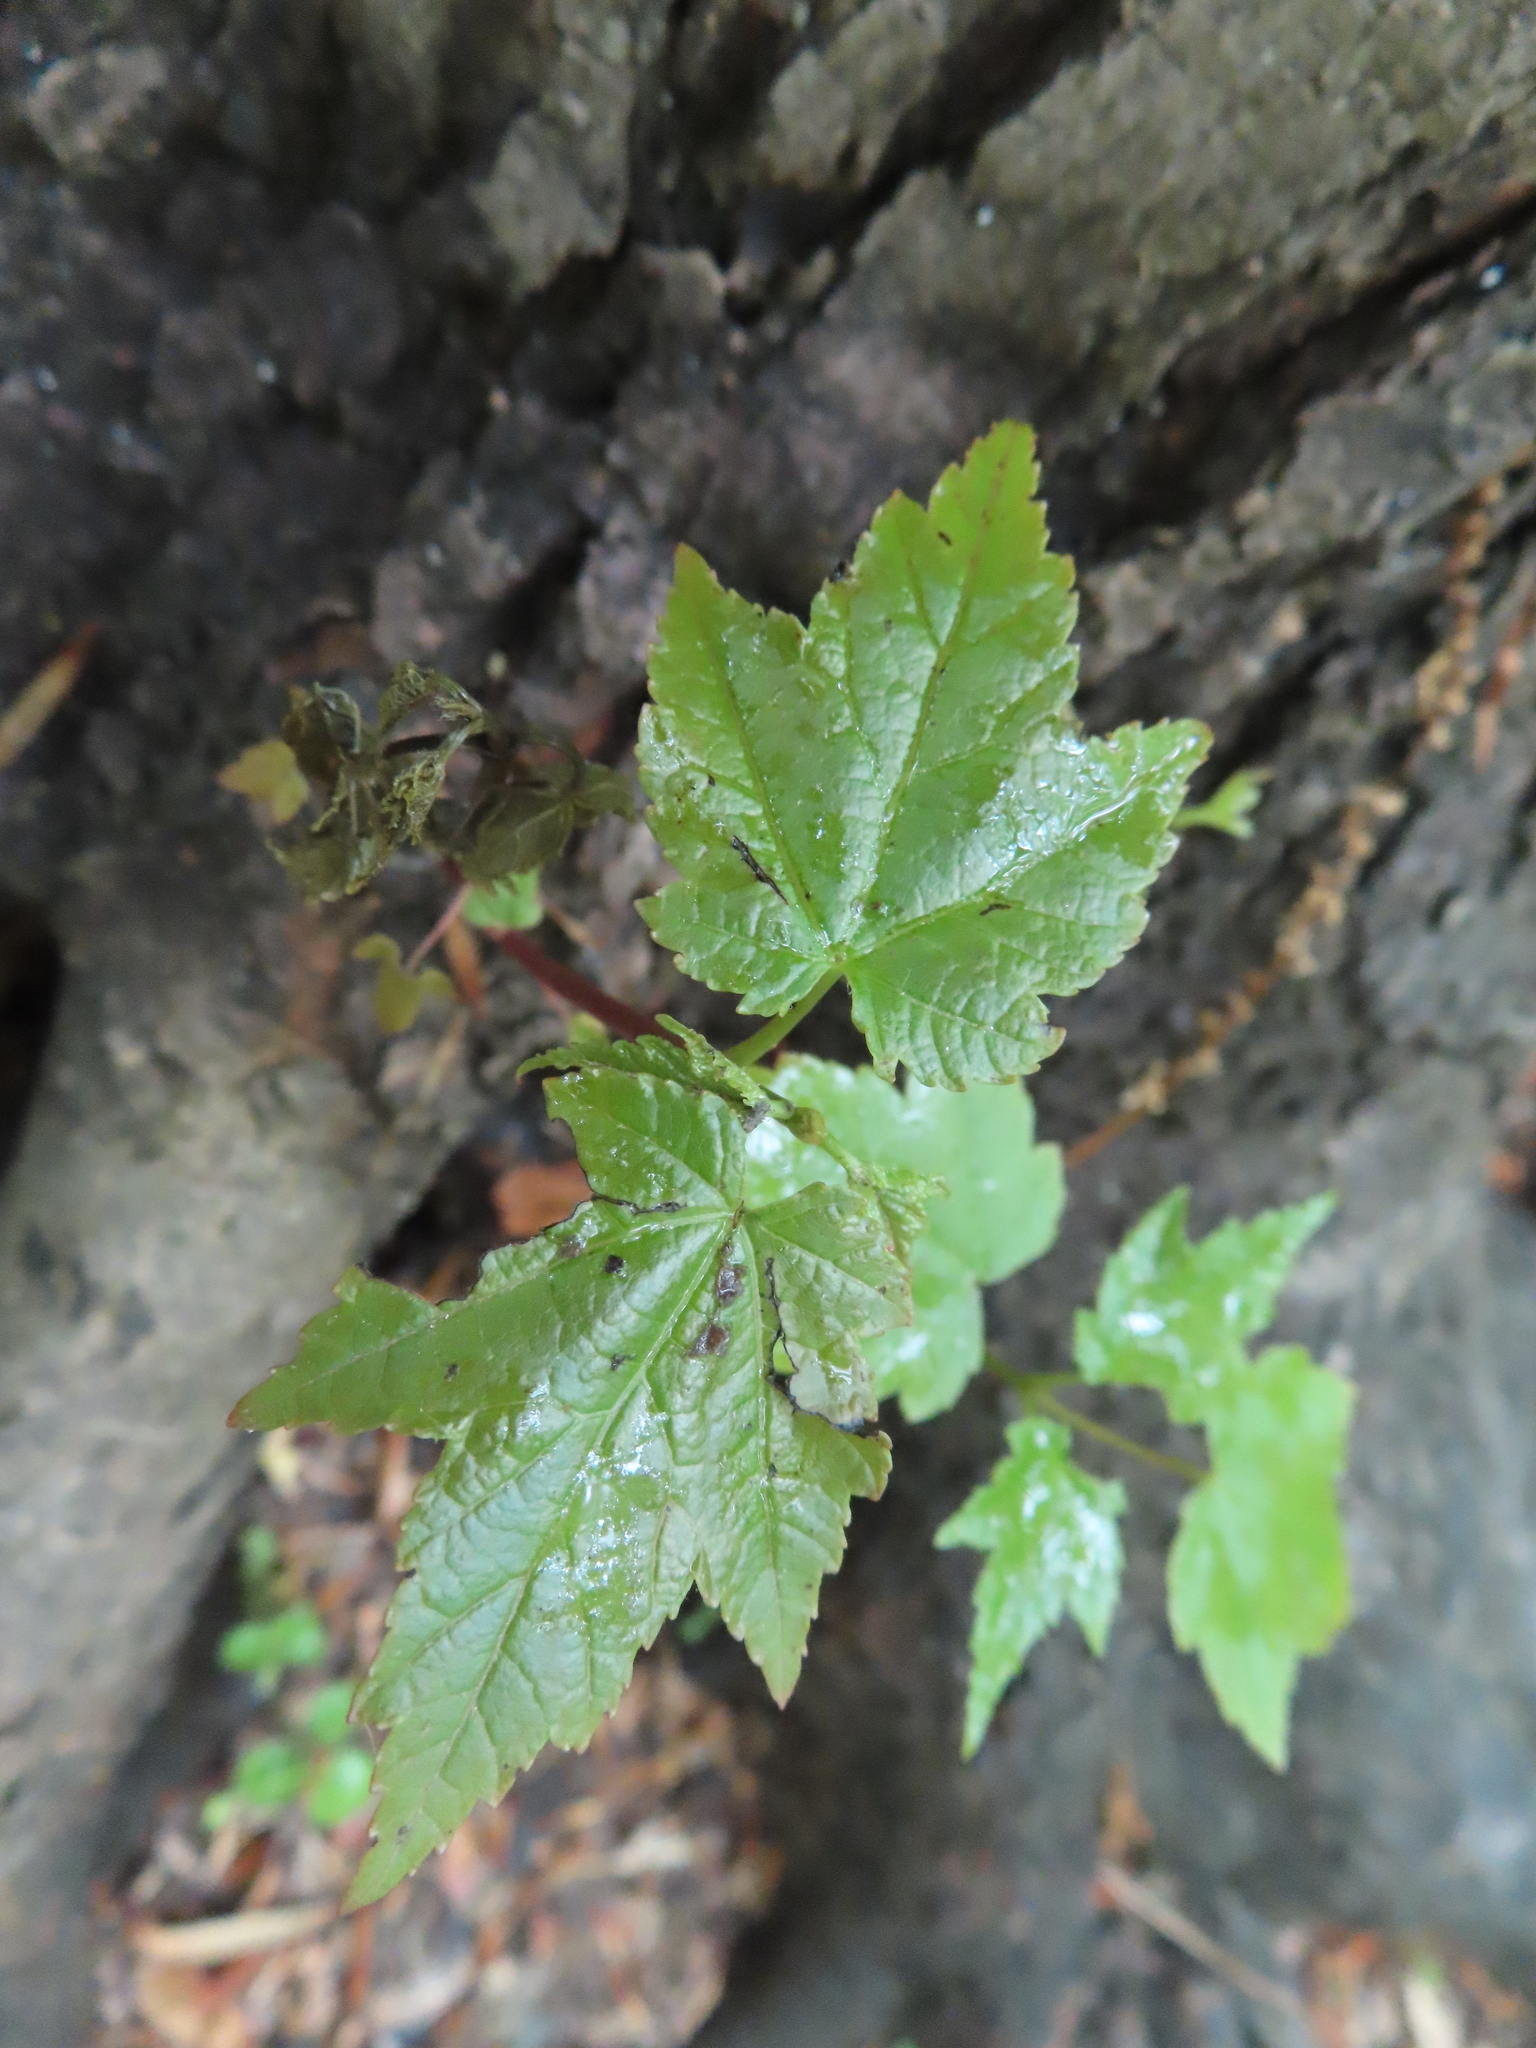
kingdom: Plantae
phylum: Tracheophyta
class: Magnoliopsida
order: Sapindales
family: Sapindaceae
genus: Acer
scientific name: Acer rubrum
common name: Red maple
